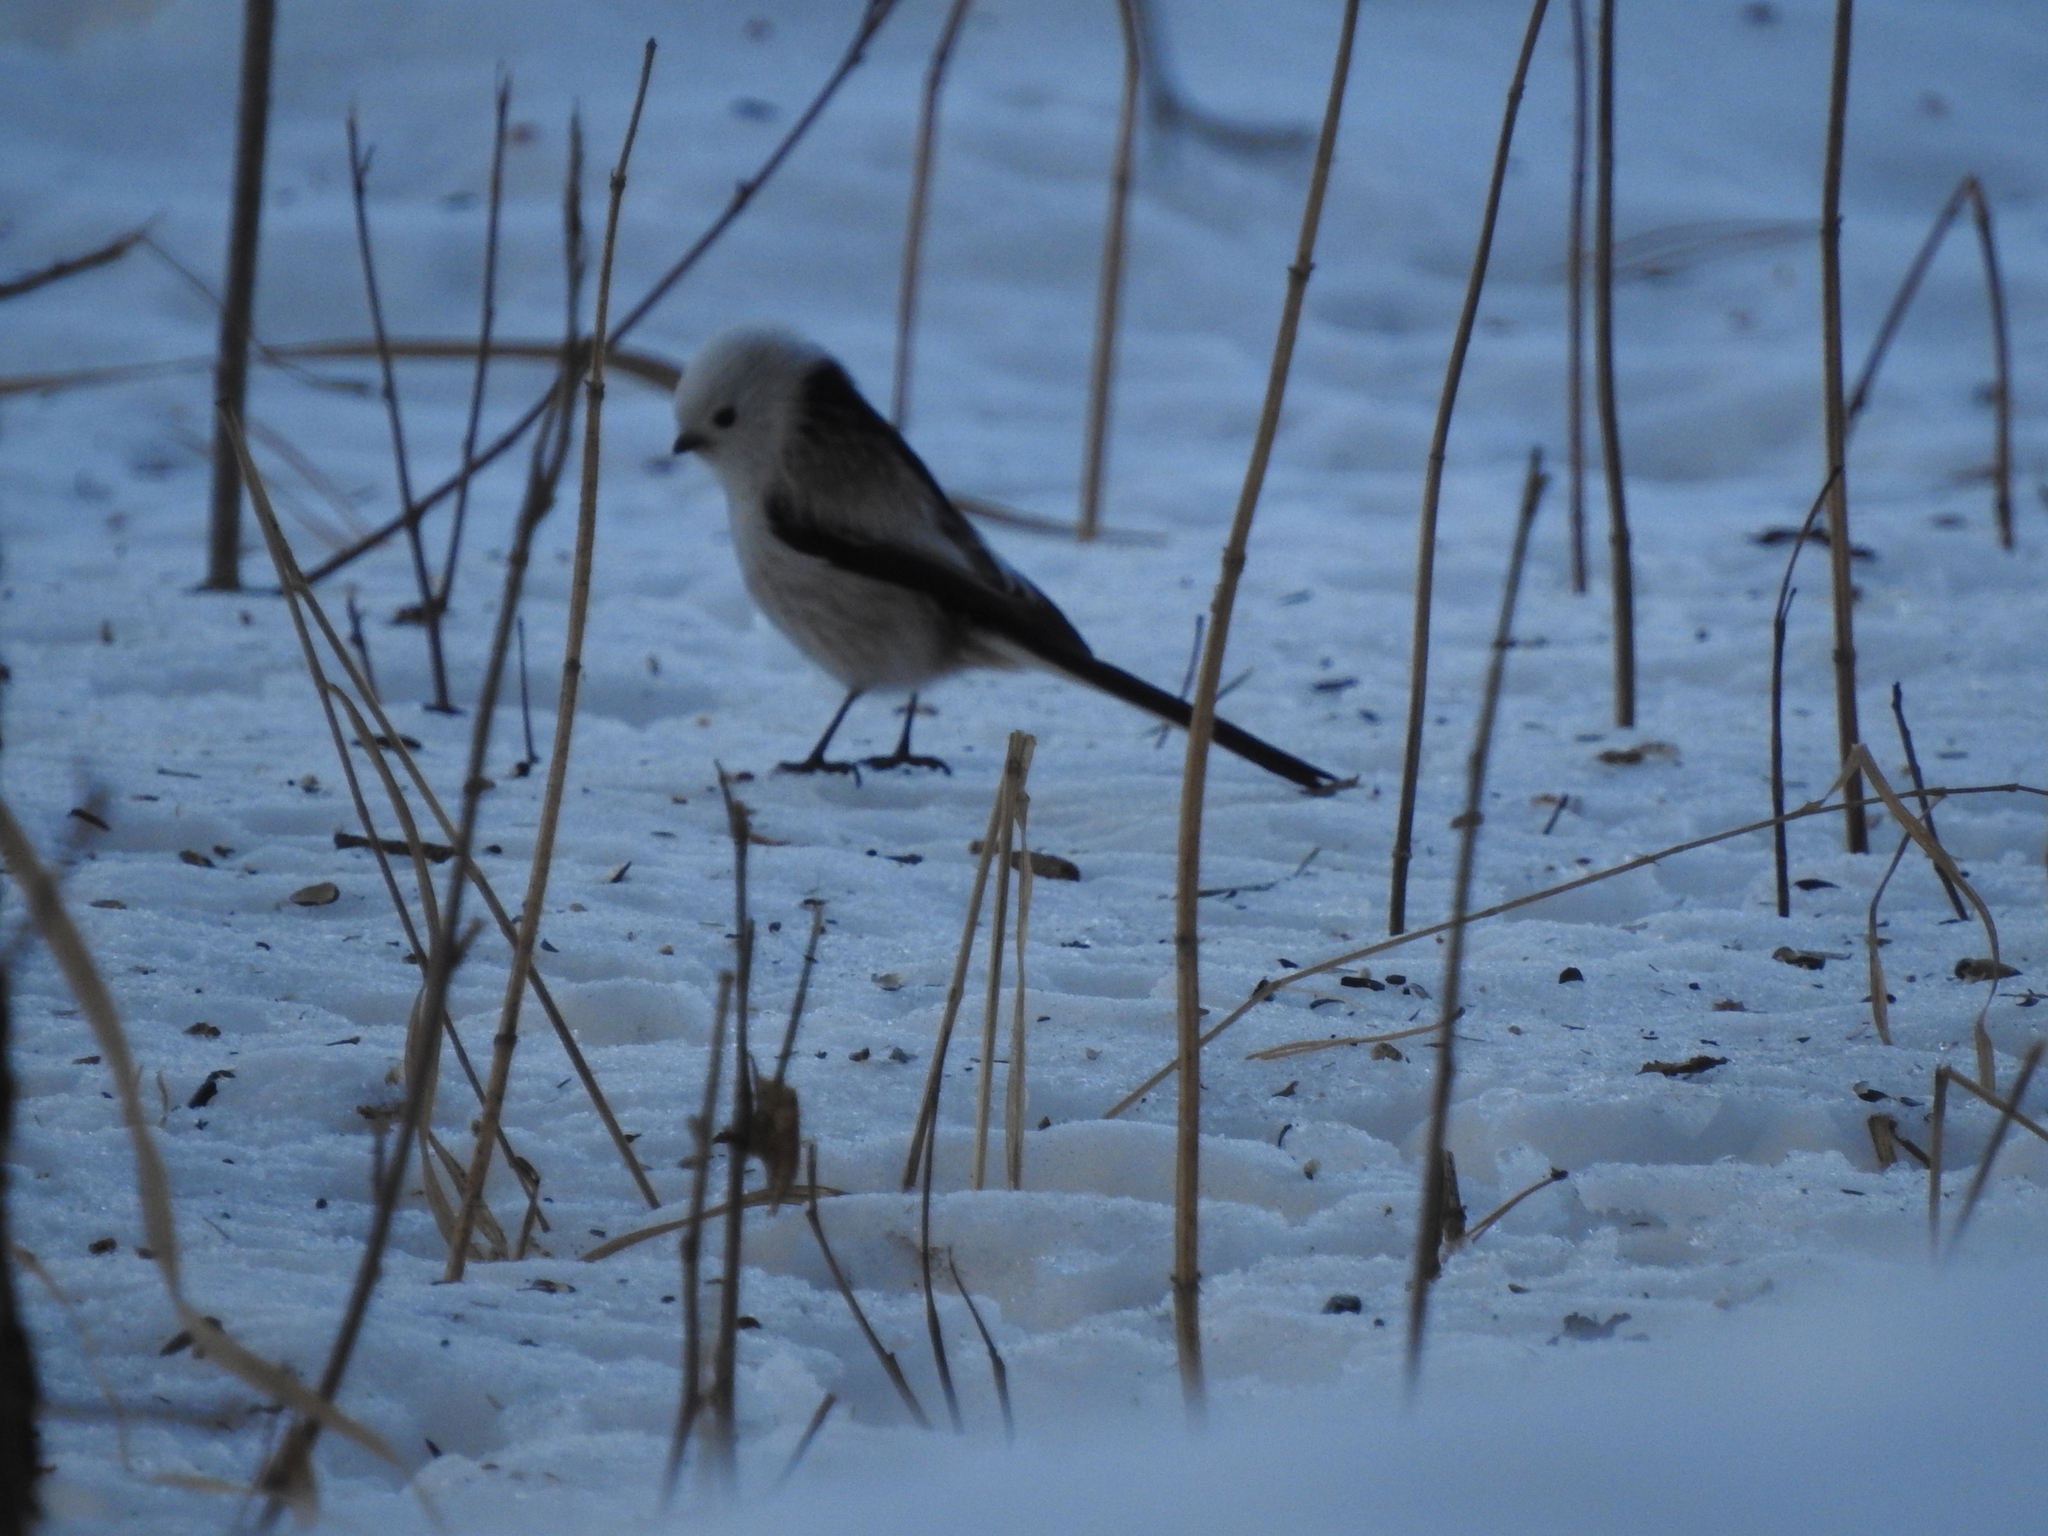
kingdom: Animalia
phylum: Chordata
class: Aves
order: Passeriformes
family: Aegithalidae
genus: Aegithalos
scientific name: Aegithalos caudatus
